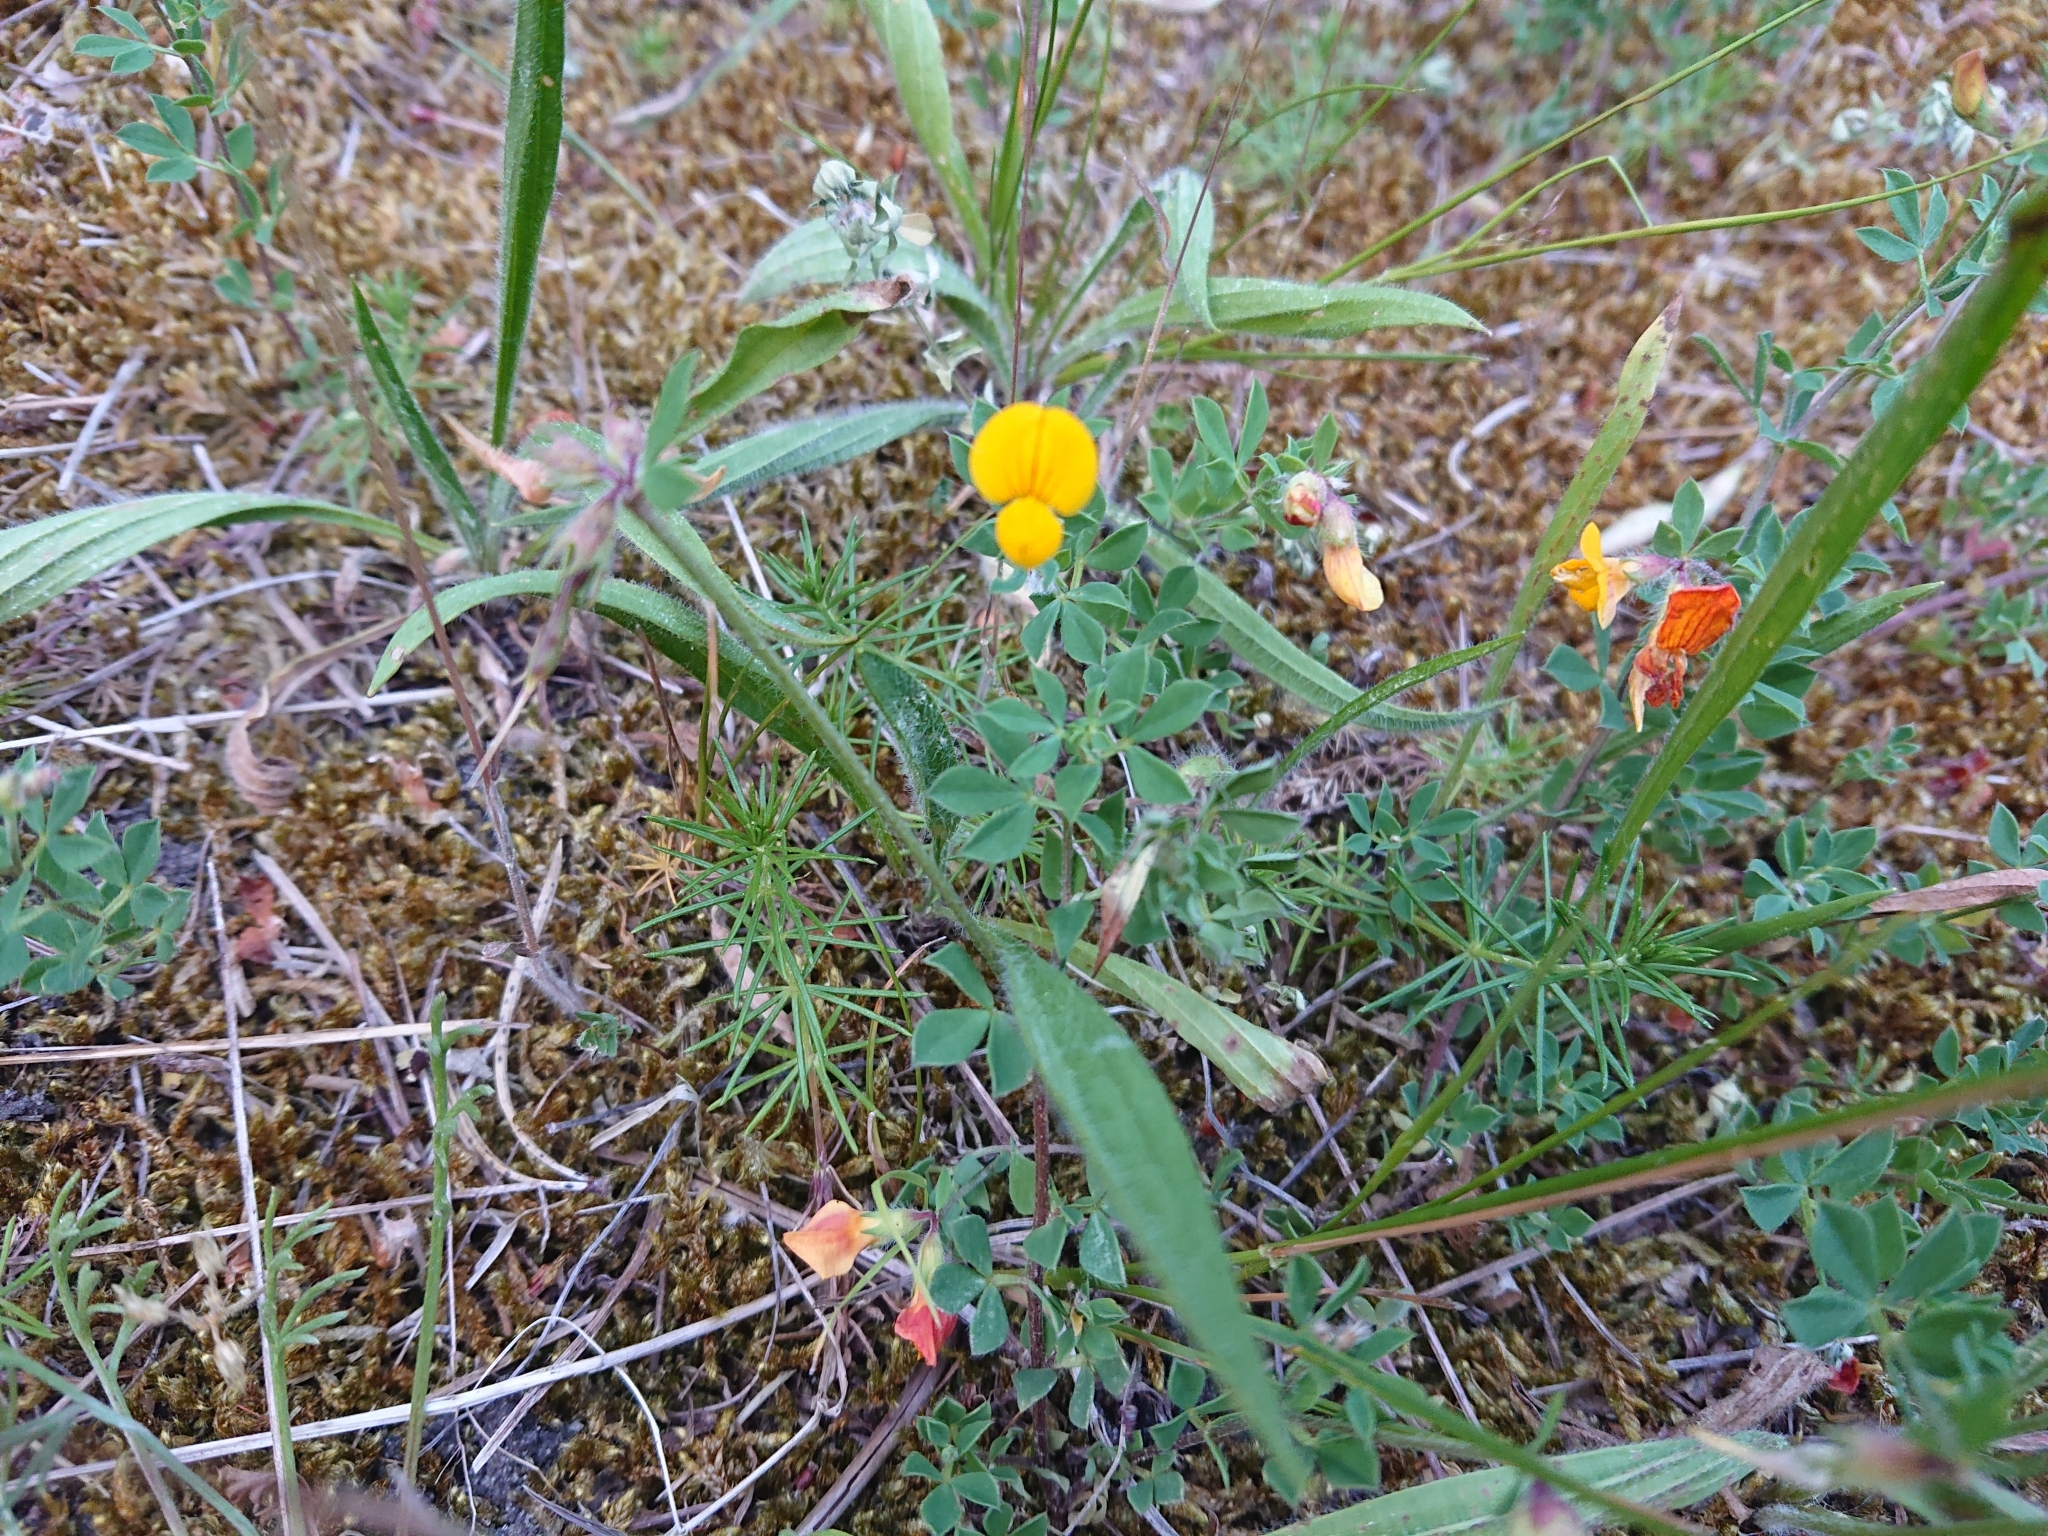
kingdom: Plantae
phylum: Tracheophyta
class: Magnoliopsida
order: Fabales
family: Fabaceae
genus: Lotus
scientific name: Lotus corniculatus
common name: Common bird's-foot-trefoil
